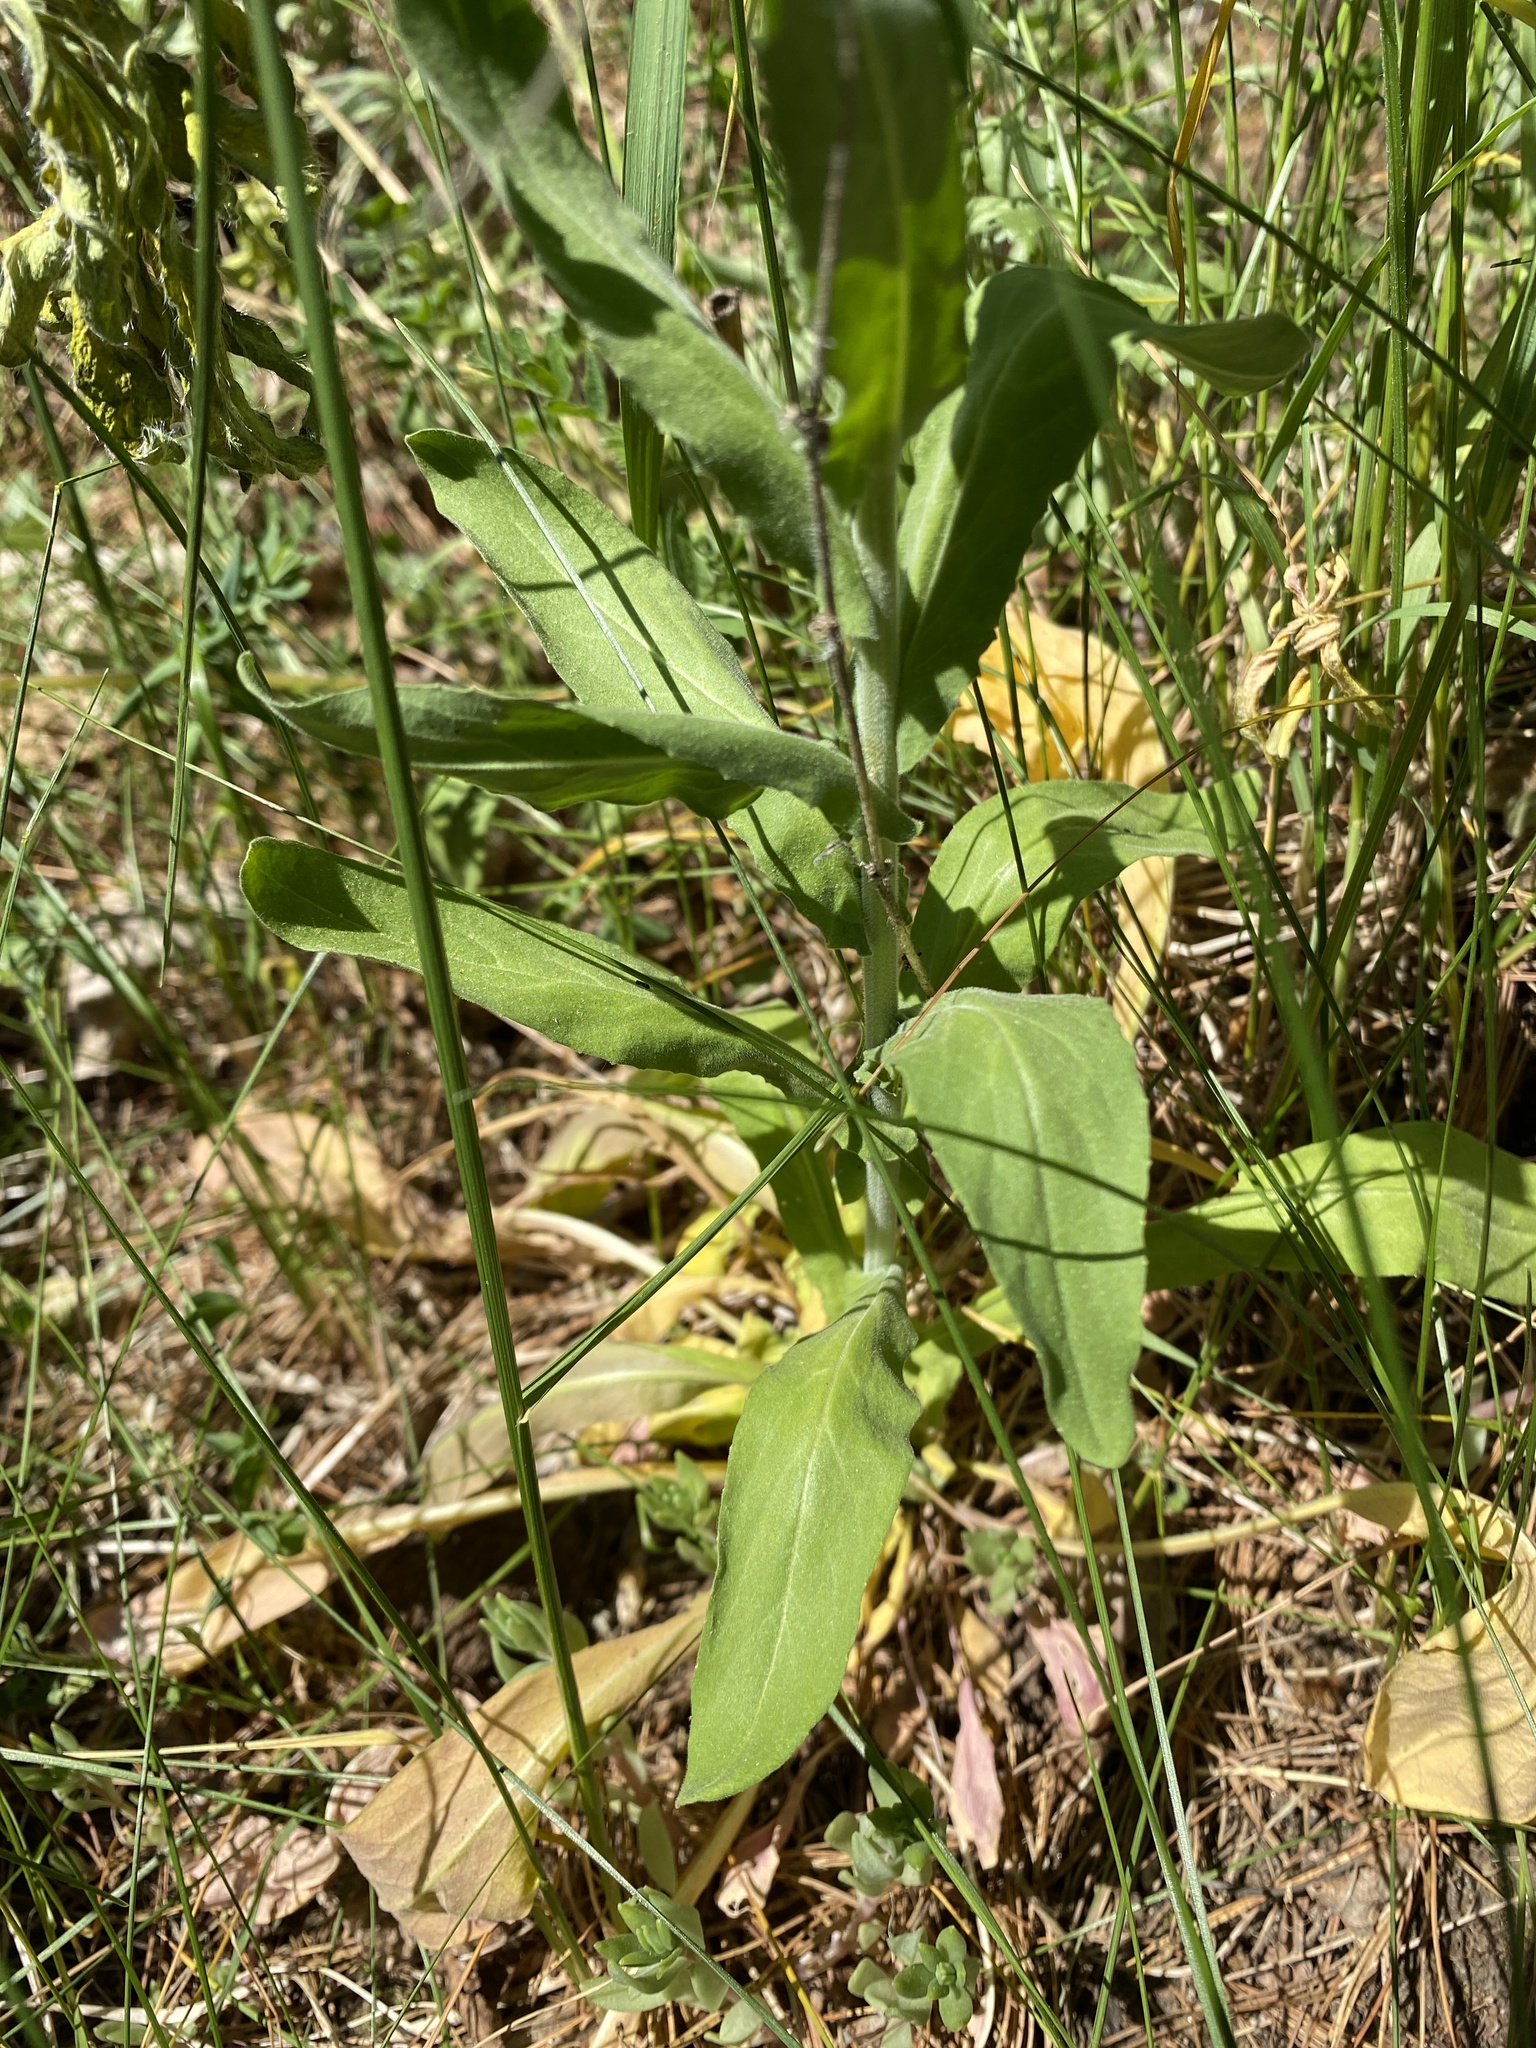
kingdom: Plantae
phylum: Tracheophyta
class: Magnoliopsida
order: Brassicales
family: Brassicaceae
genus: Lepidium
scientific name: Lepidium campestre
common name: Field pepperwort
